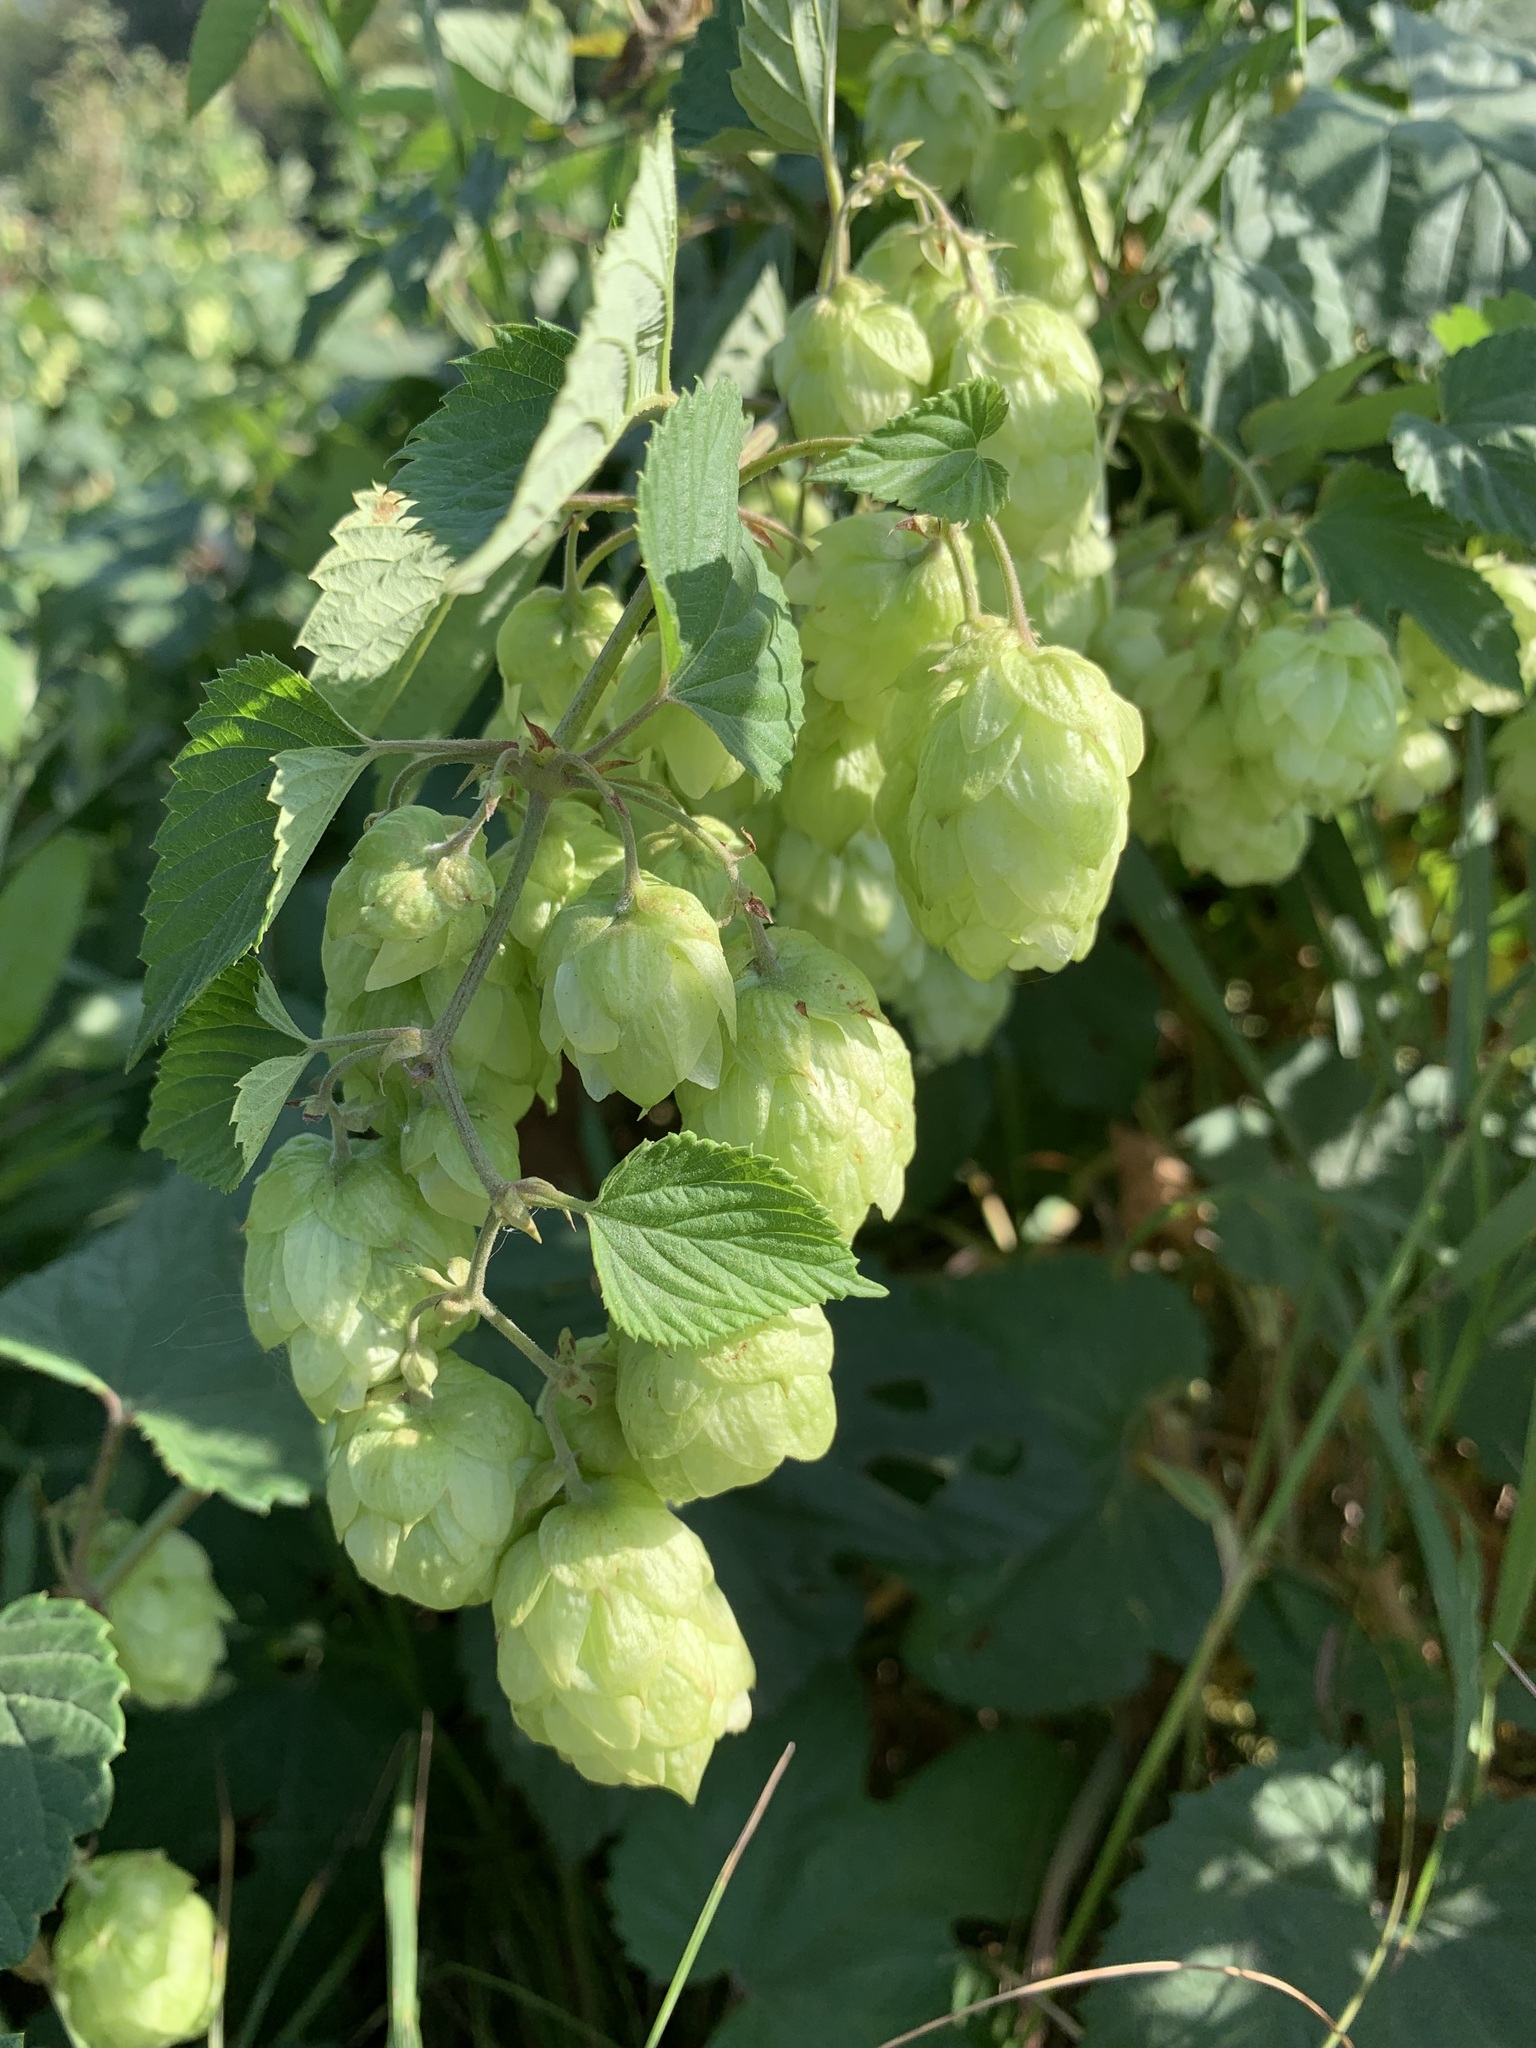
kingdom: Plantae
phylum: Tracheophyta
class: Magnoliopsida
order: Rosales
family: Cannabaceae
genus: Humulus
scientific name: Humulus lupulus
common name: Hop
